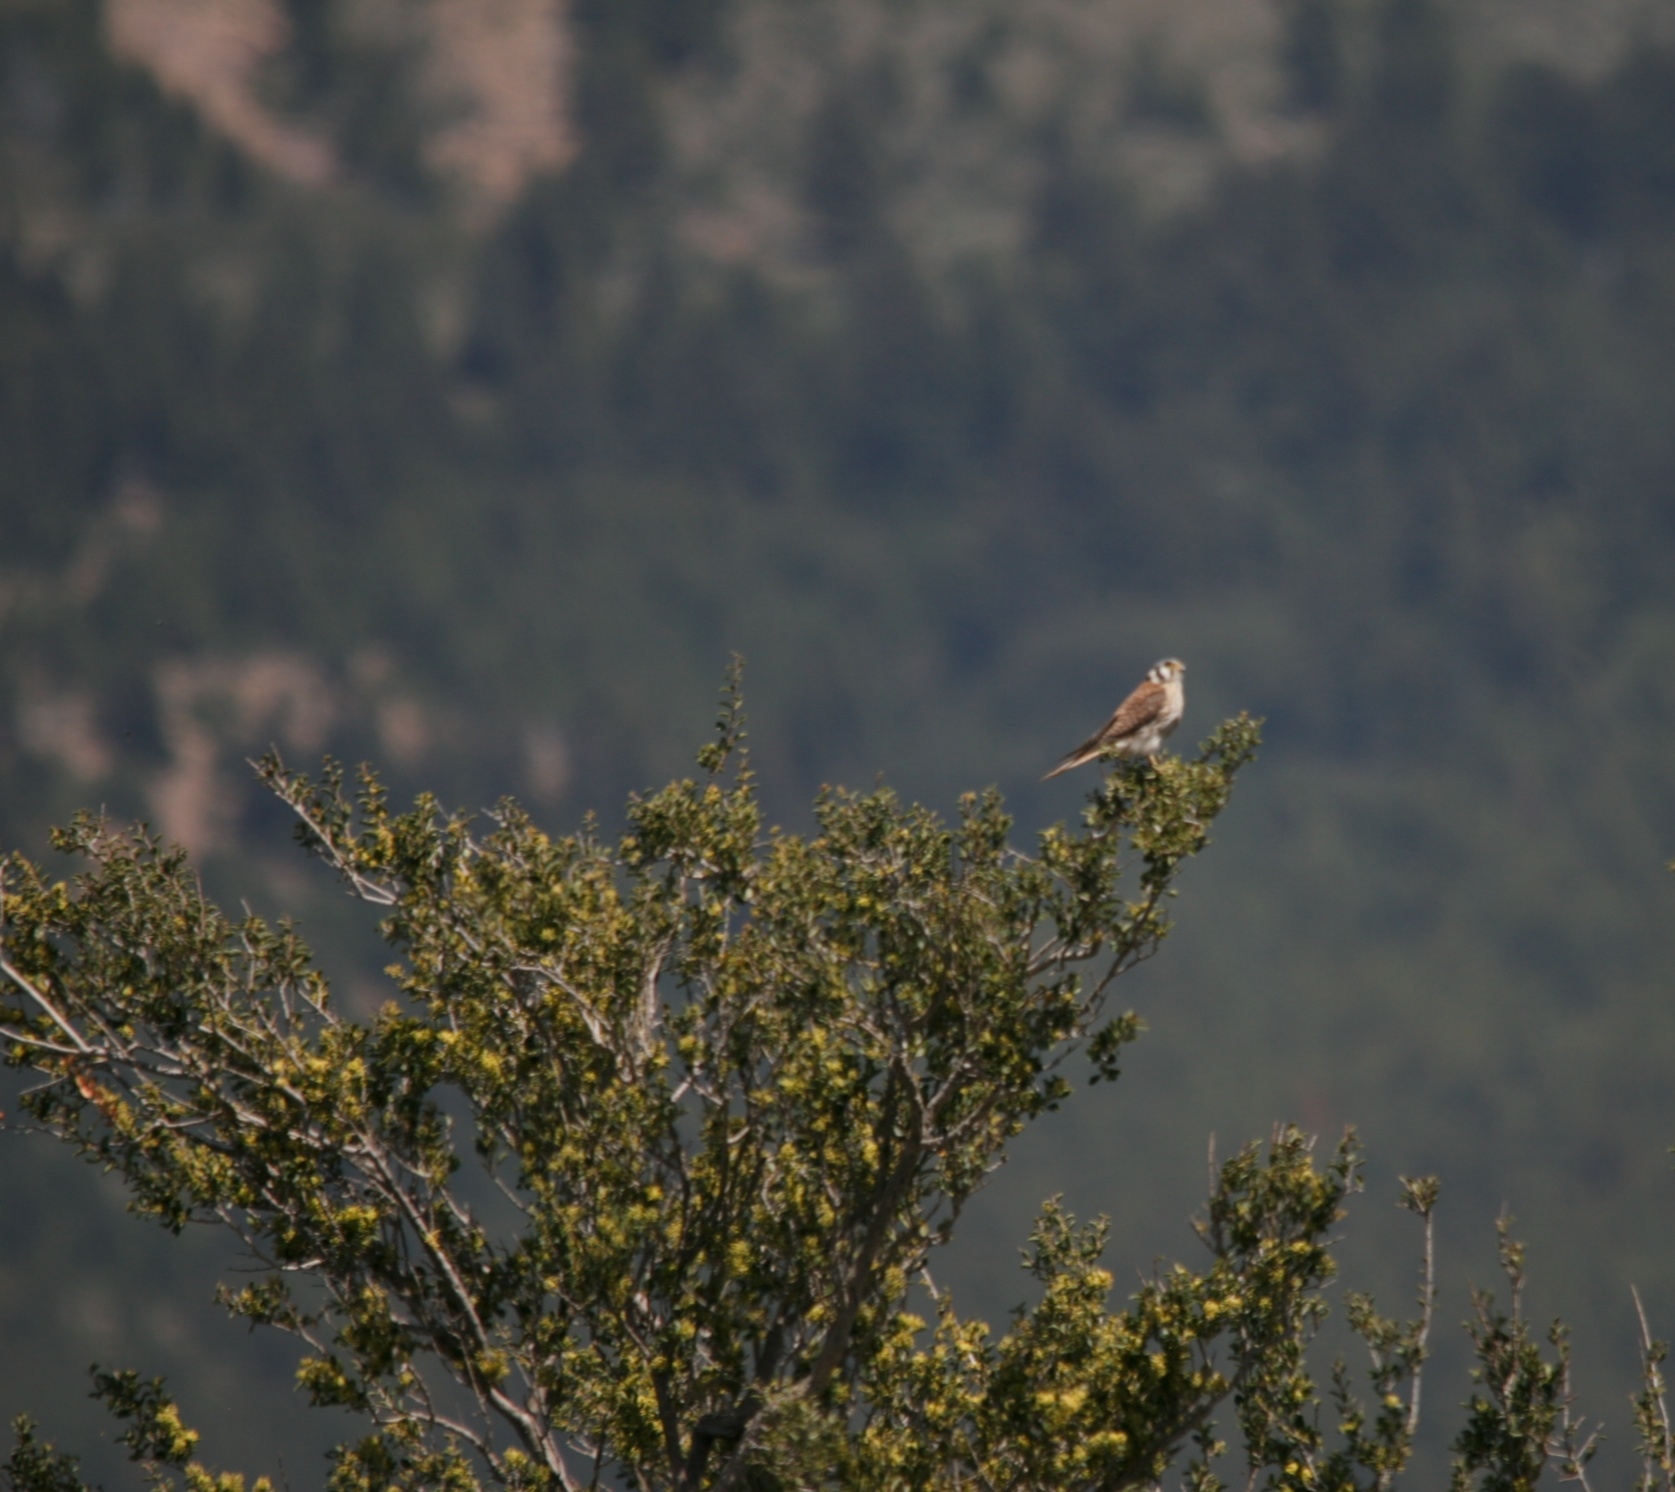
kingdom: Animalia
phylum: Chordata
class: Aves
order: Falconiformes
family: Falconidae
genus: Falco
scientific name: Falco sparverius
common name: American kestrel
